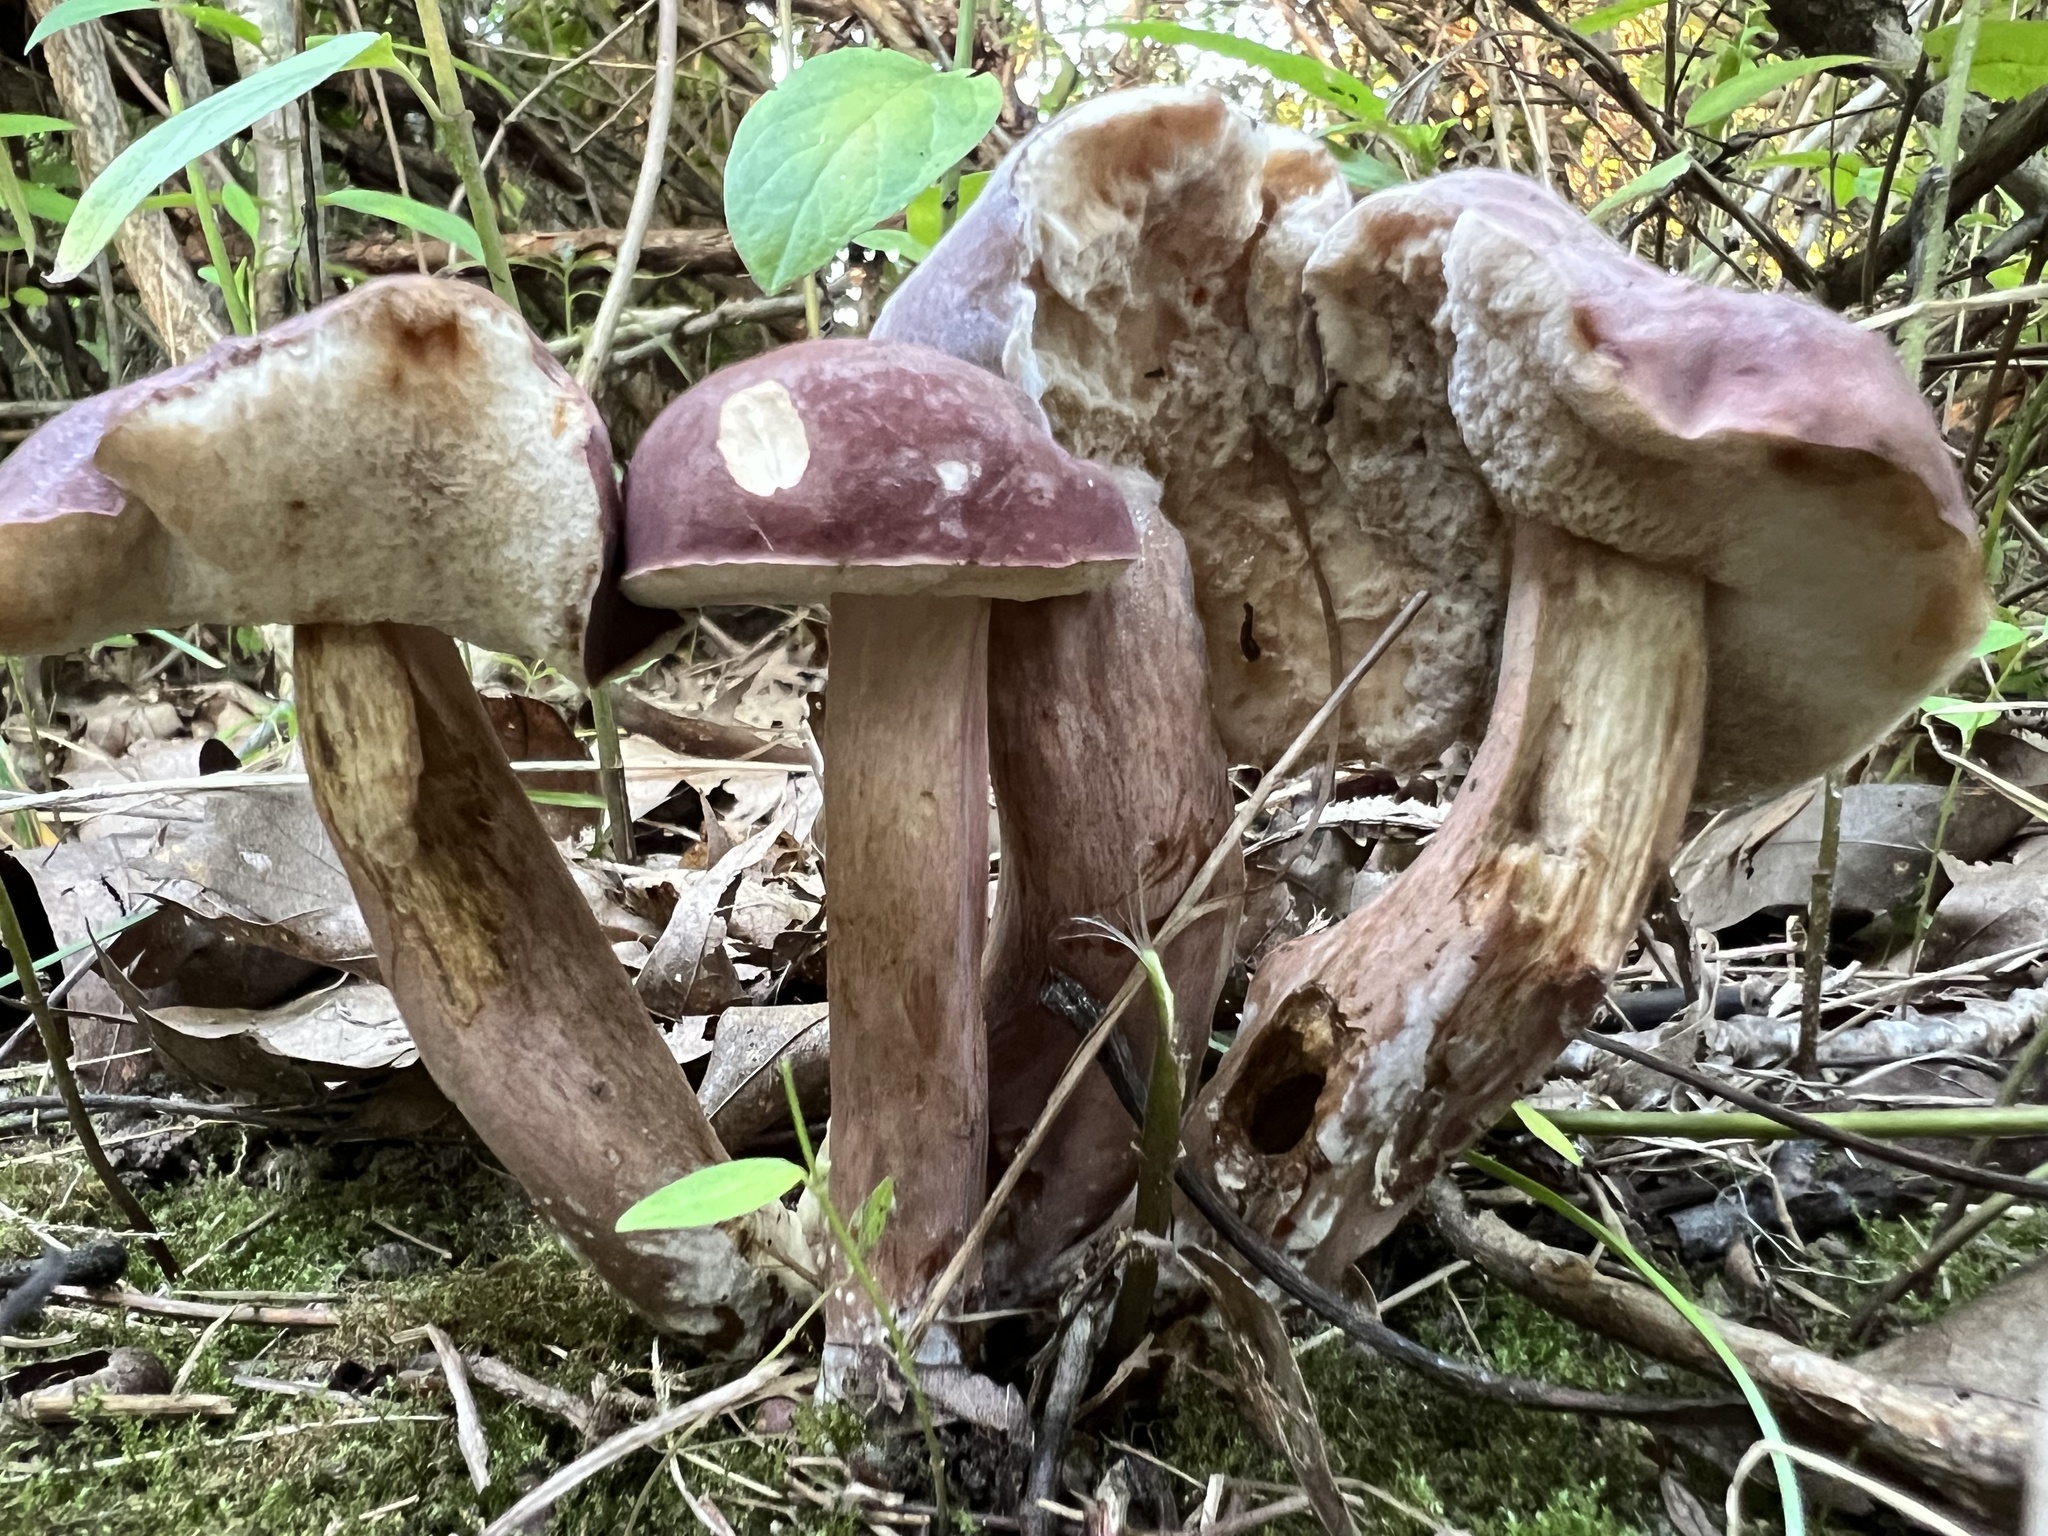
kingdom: Fungi
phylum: Basidiomycota
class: Agaricomycetes
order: Boletales
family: Boletaceae
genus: Tylopilus
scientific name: Tylopilus rubrobrunneus
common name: Reddish brown bitter bolete
